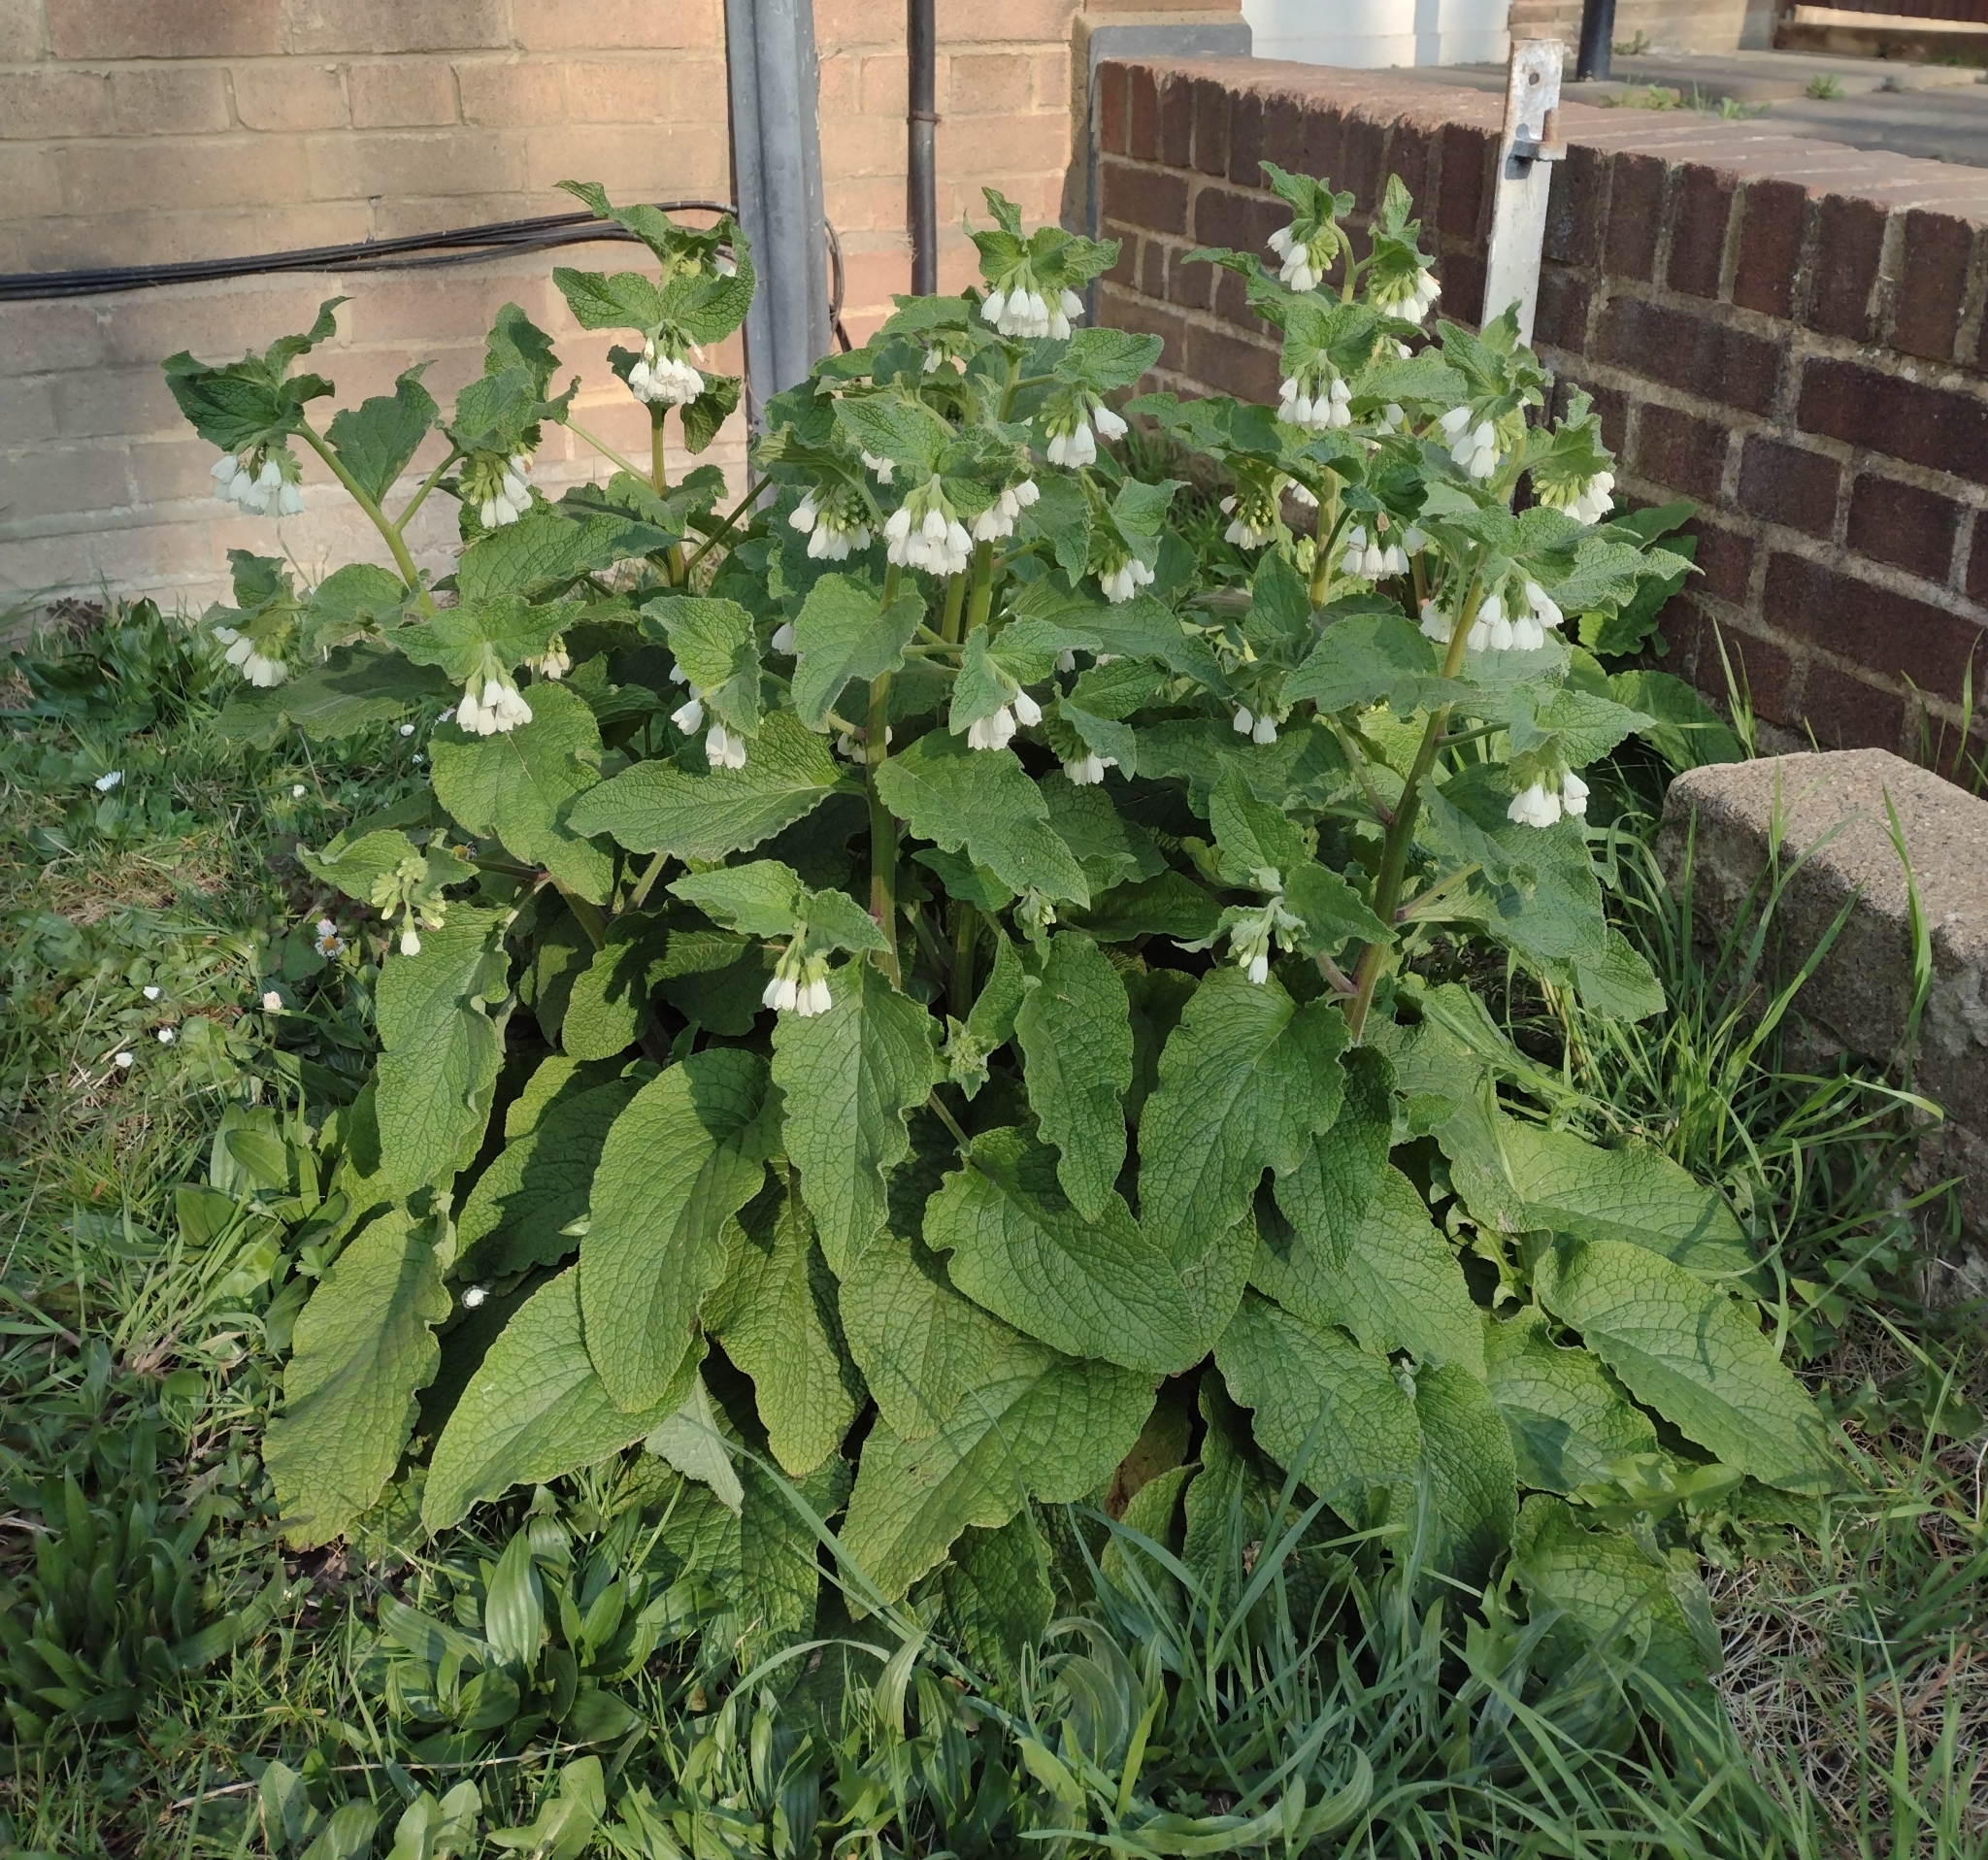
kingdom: Plantae
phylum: Tracheophyta
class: Magnoliopsida
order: Boraginales
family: Boraginaceae
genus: Symphytum
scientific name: Symphytum orientale
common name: White comfrey
